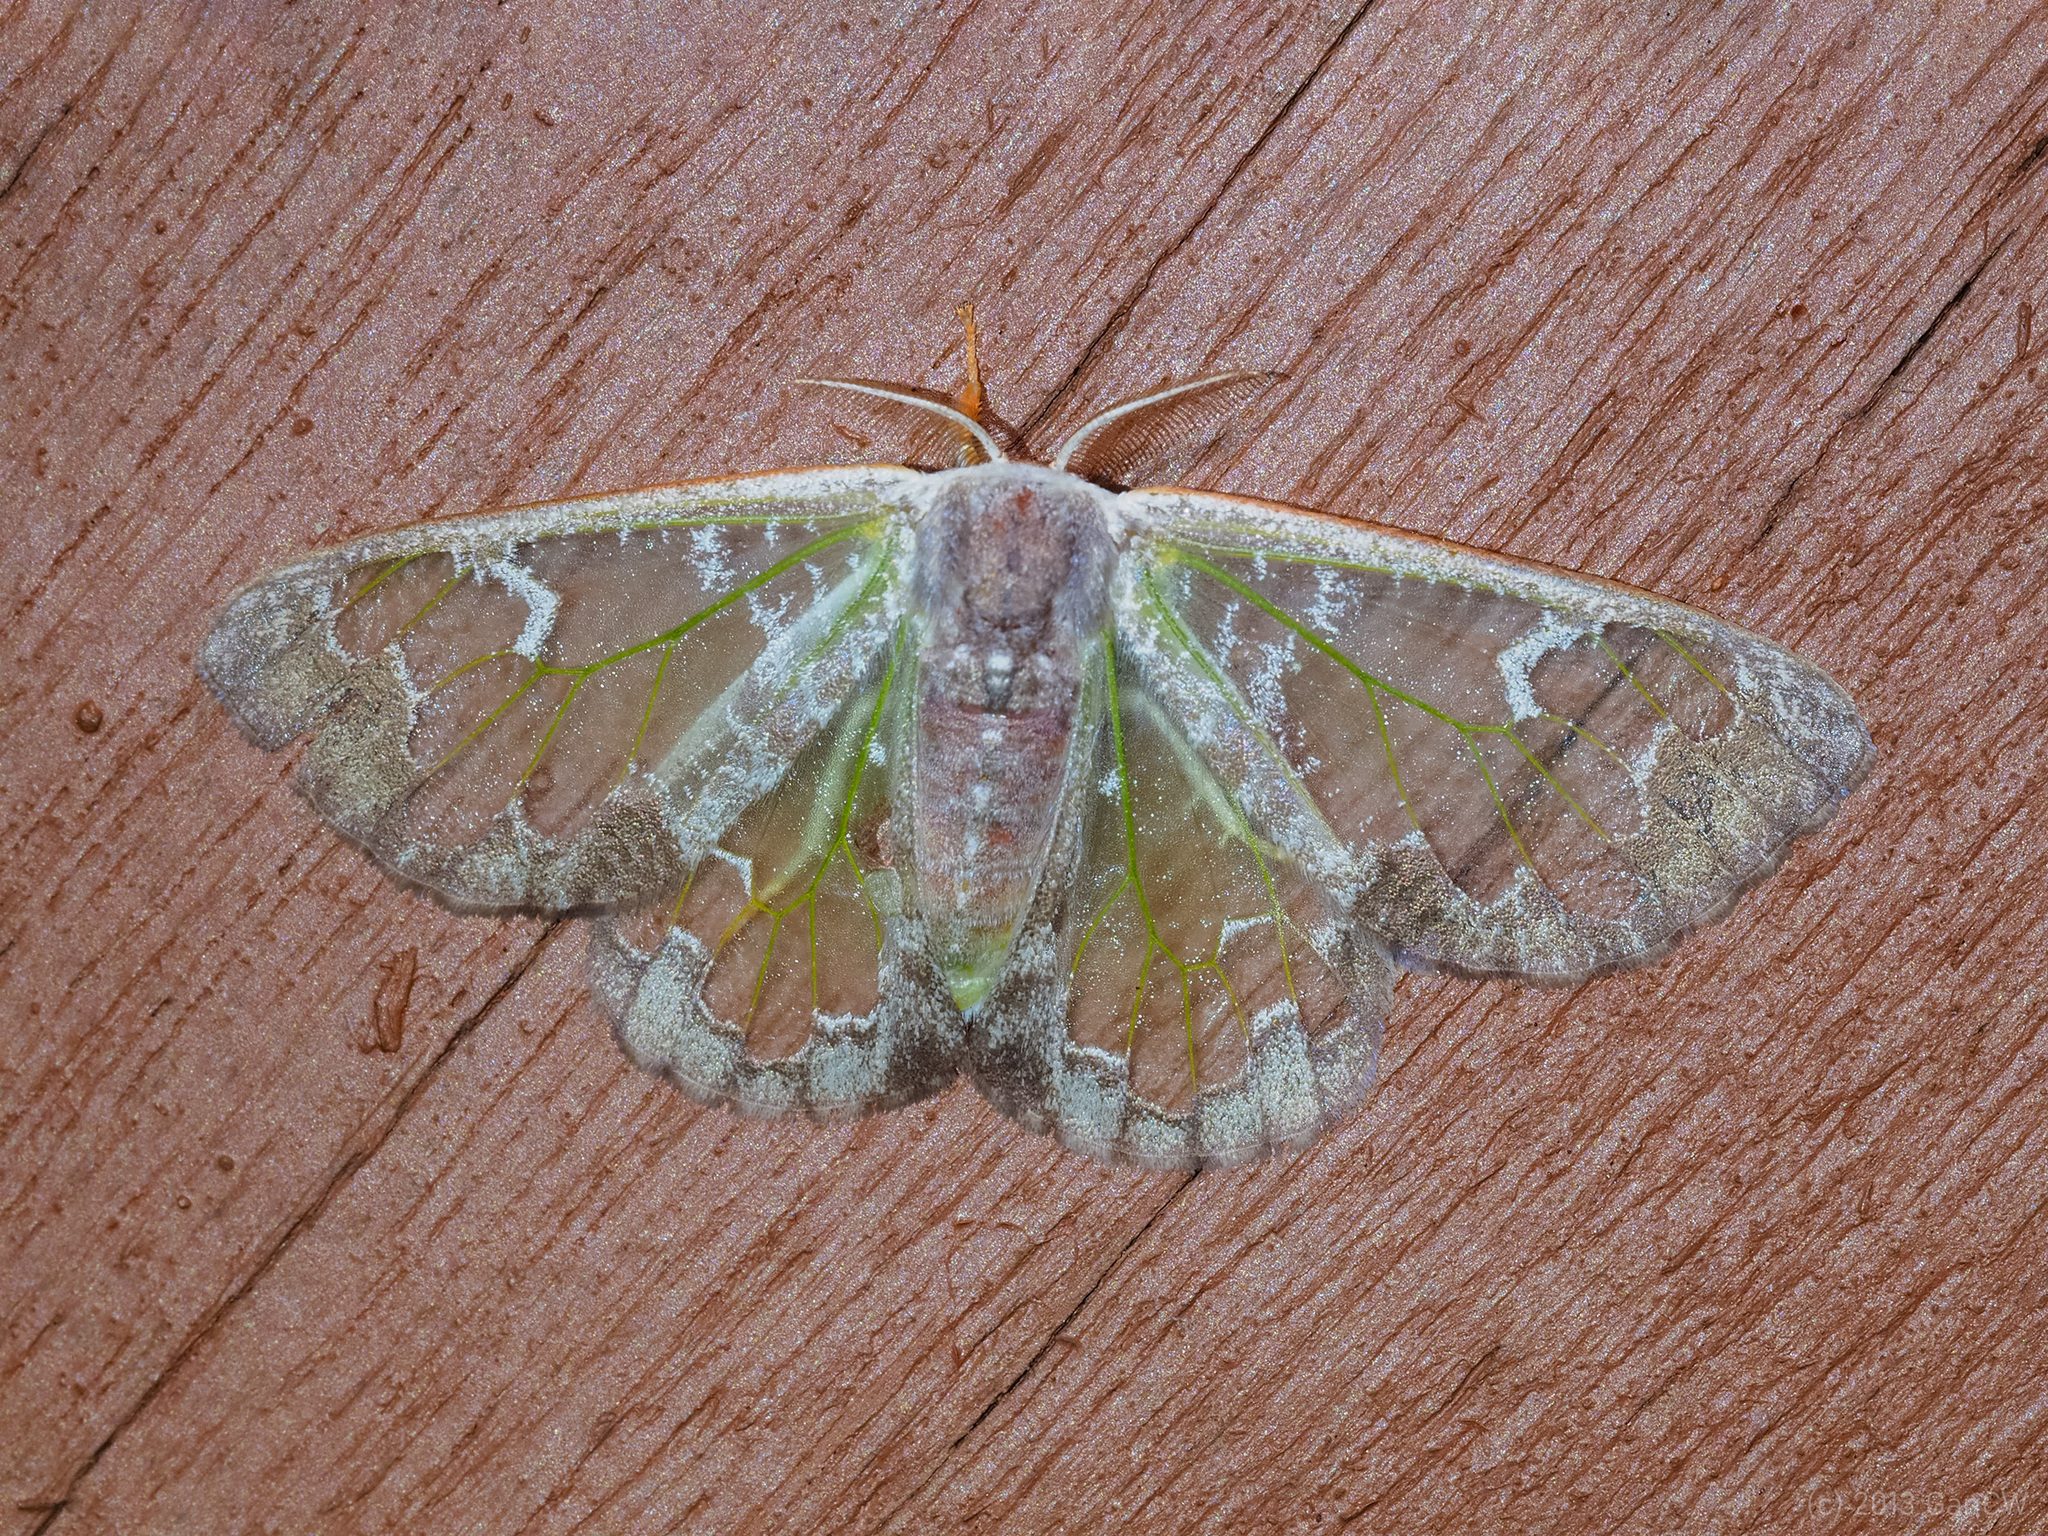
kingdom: Animalia
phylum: Arthropoda
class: Insecta
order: Lepidoptera
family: Erebidae
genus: Carriola
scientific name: Carriola
